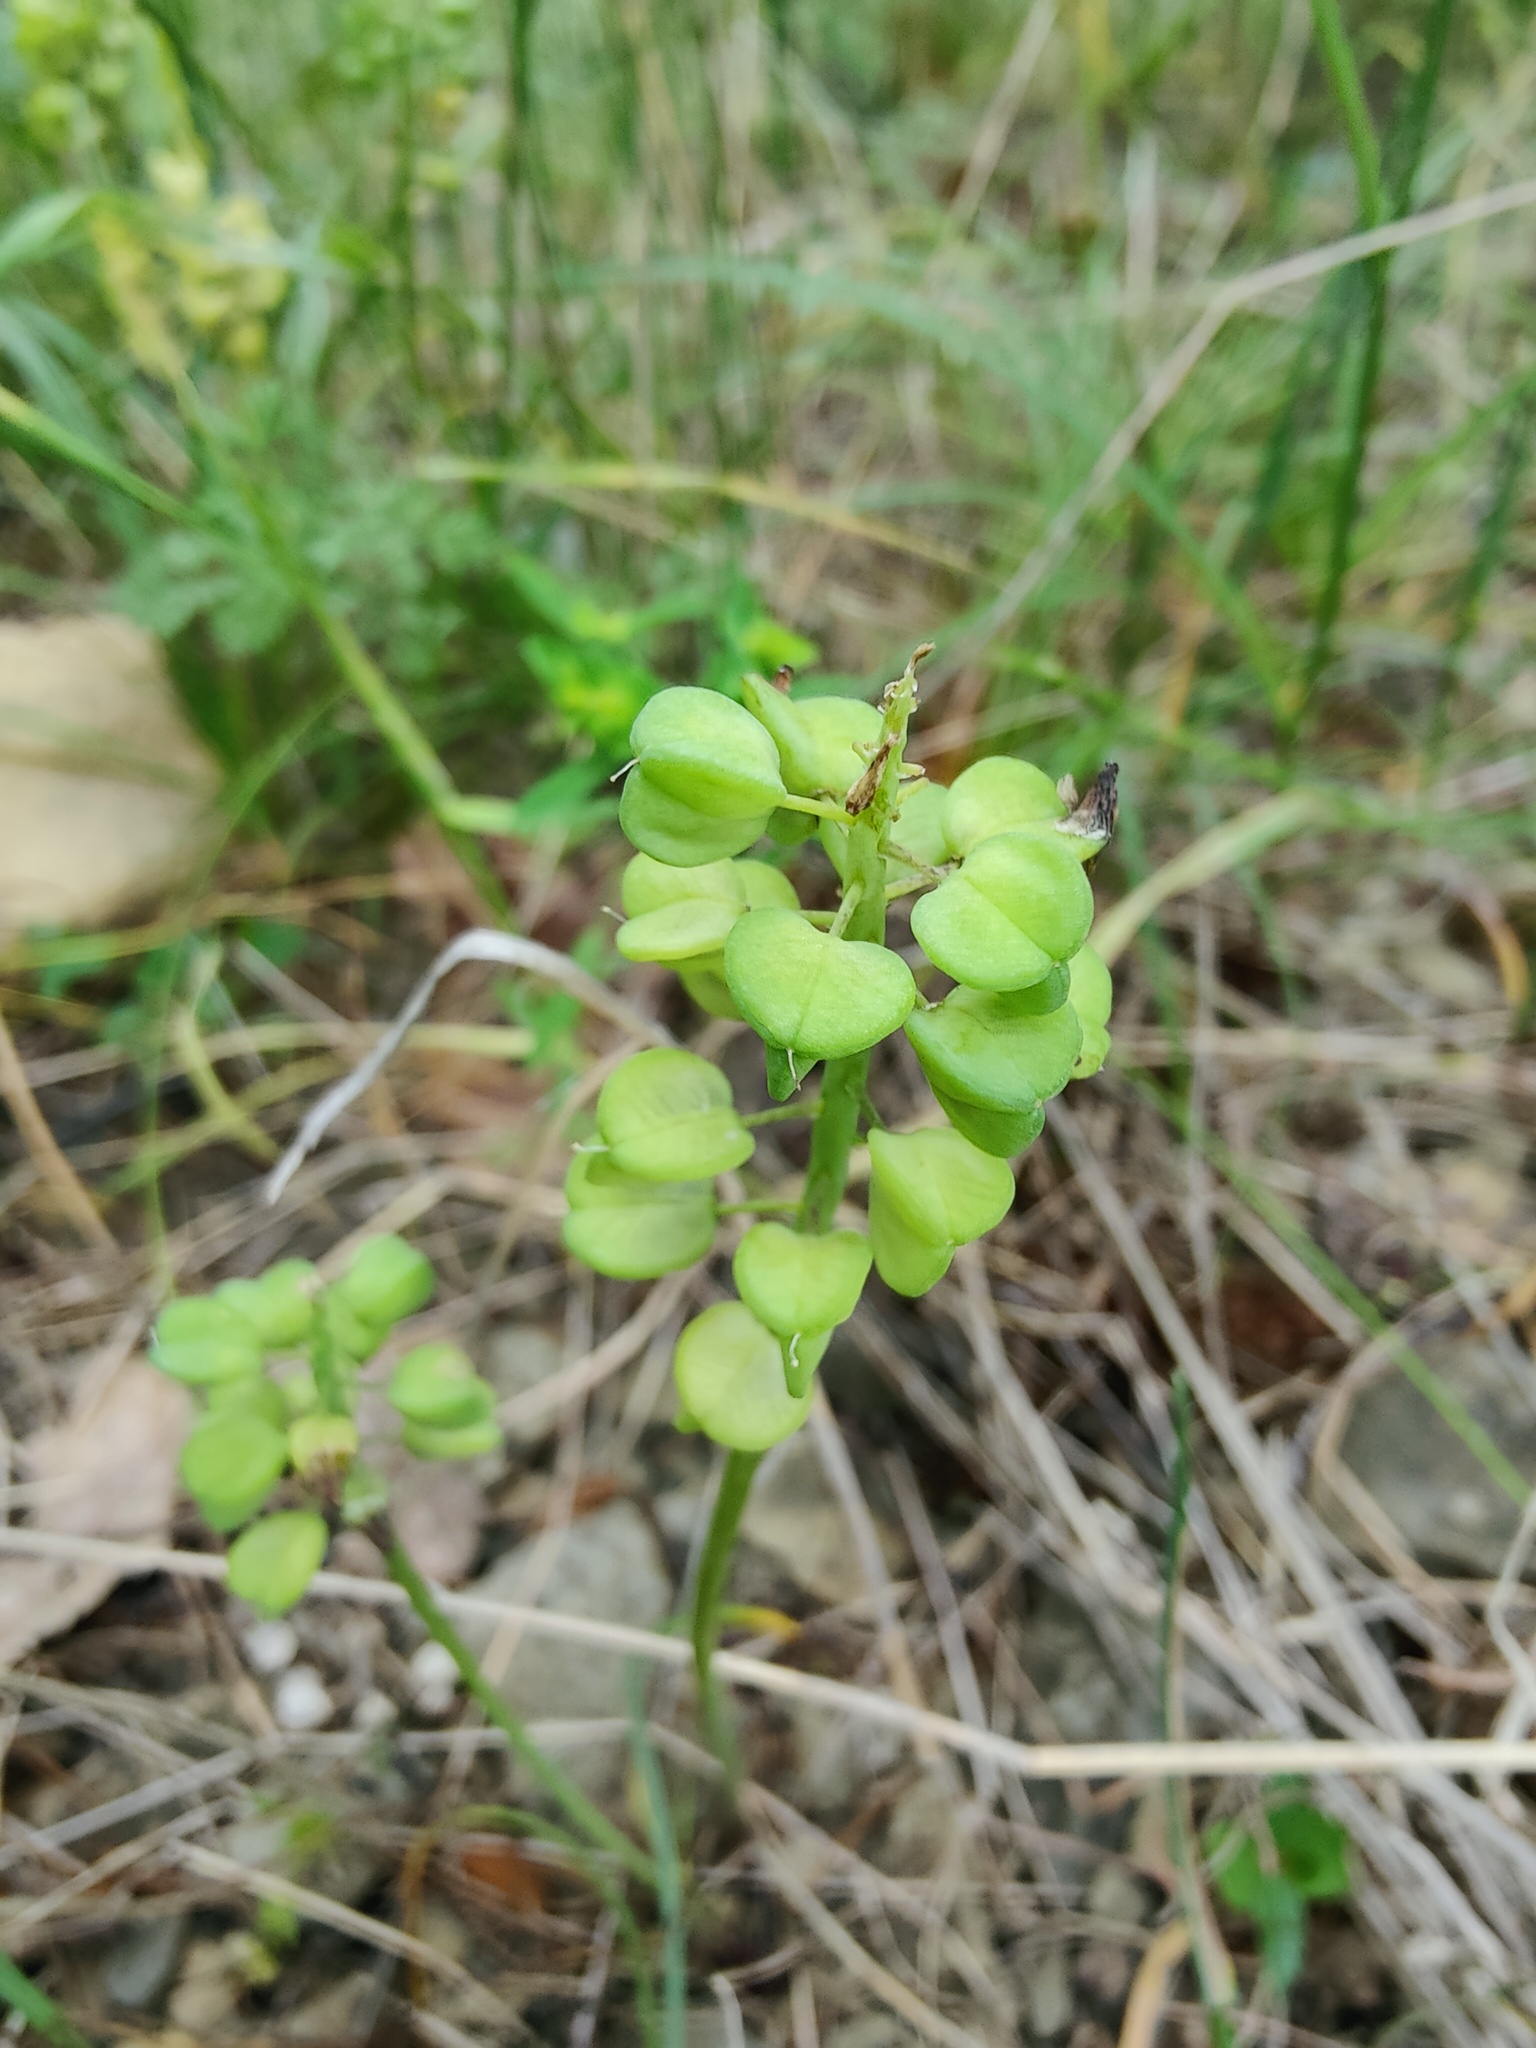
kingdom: Plantae
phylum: Tracheophyta
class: Liliopsida
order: Asparagales
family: Asparagaceae
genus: Muscari
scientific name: Muscari neglectum
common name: Grape-hyacinth
